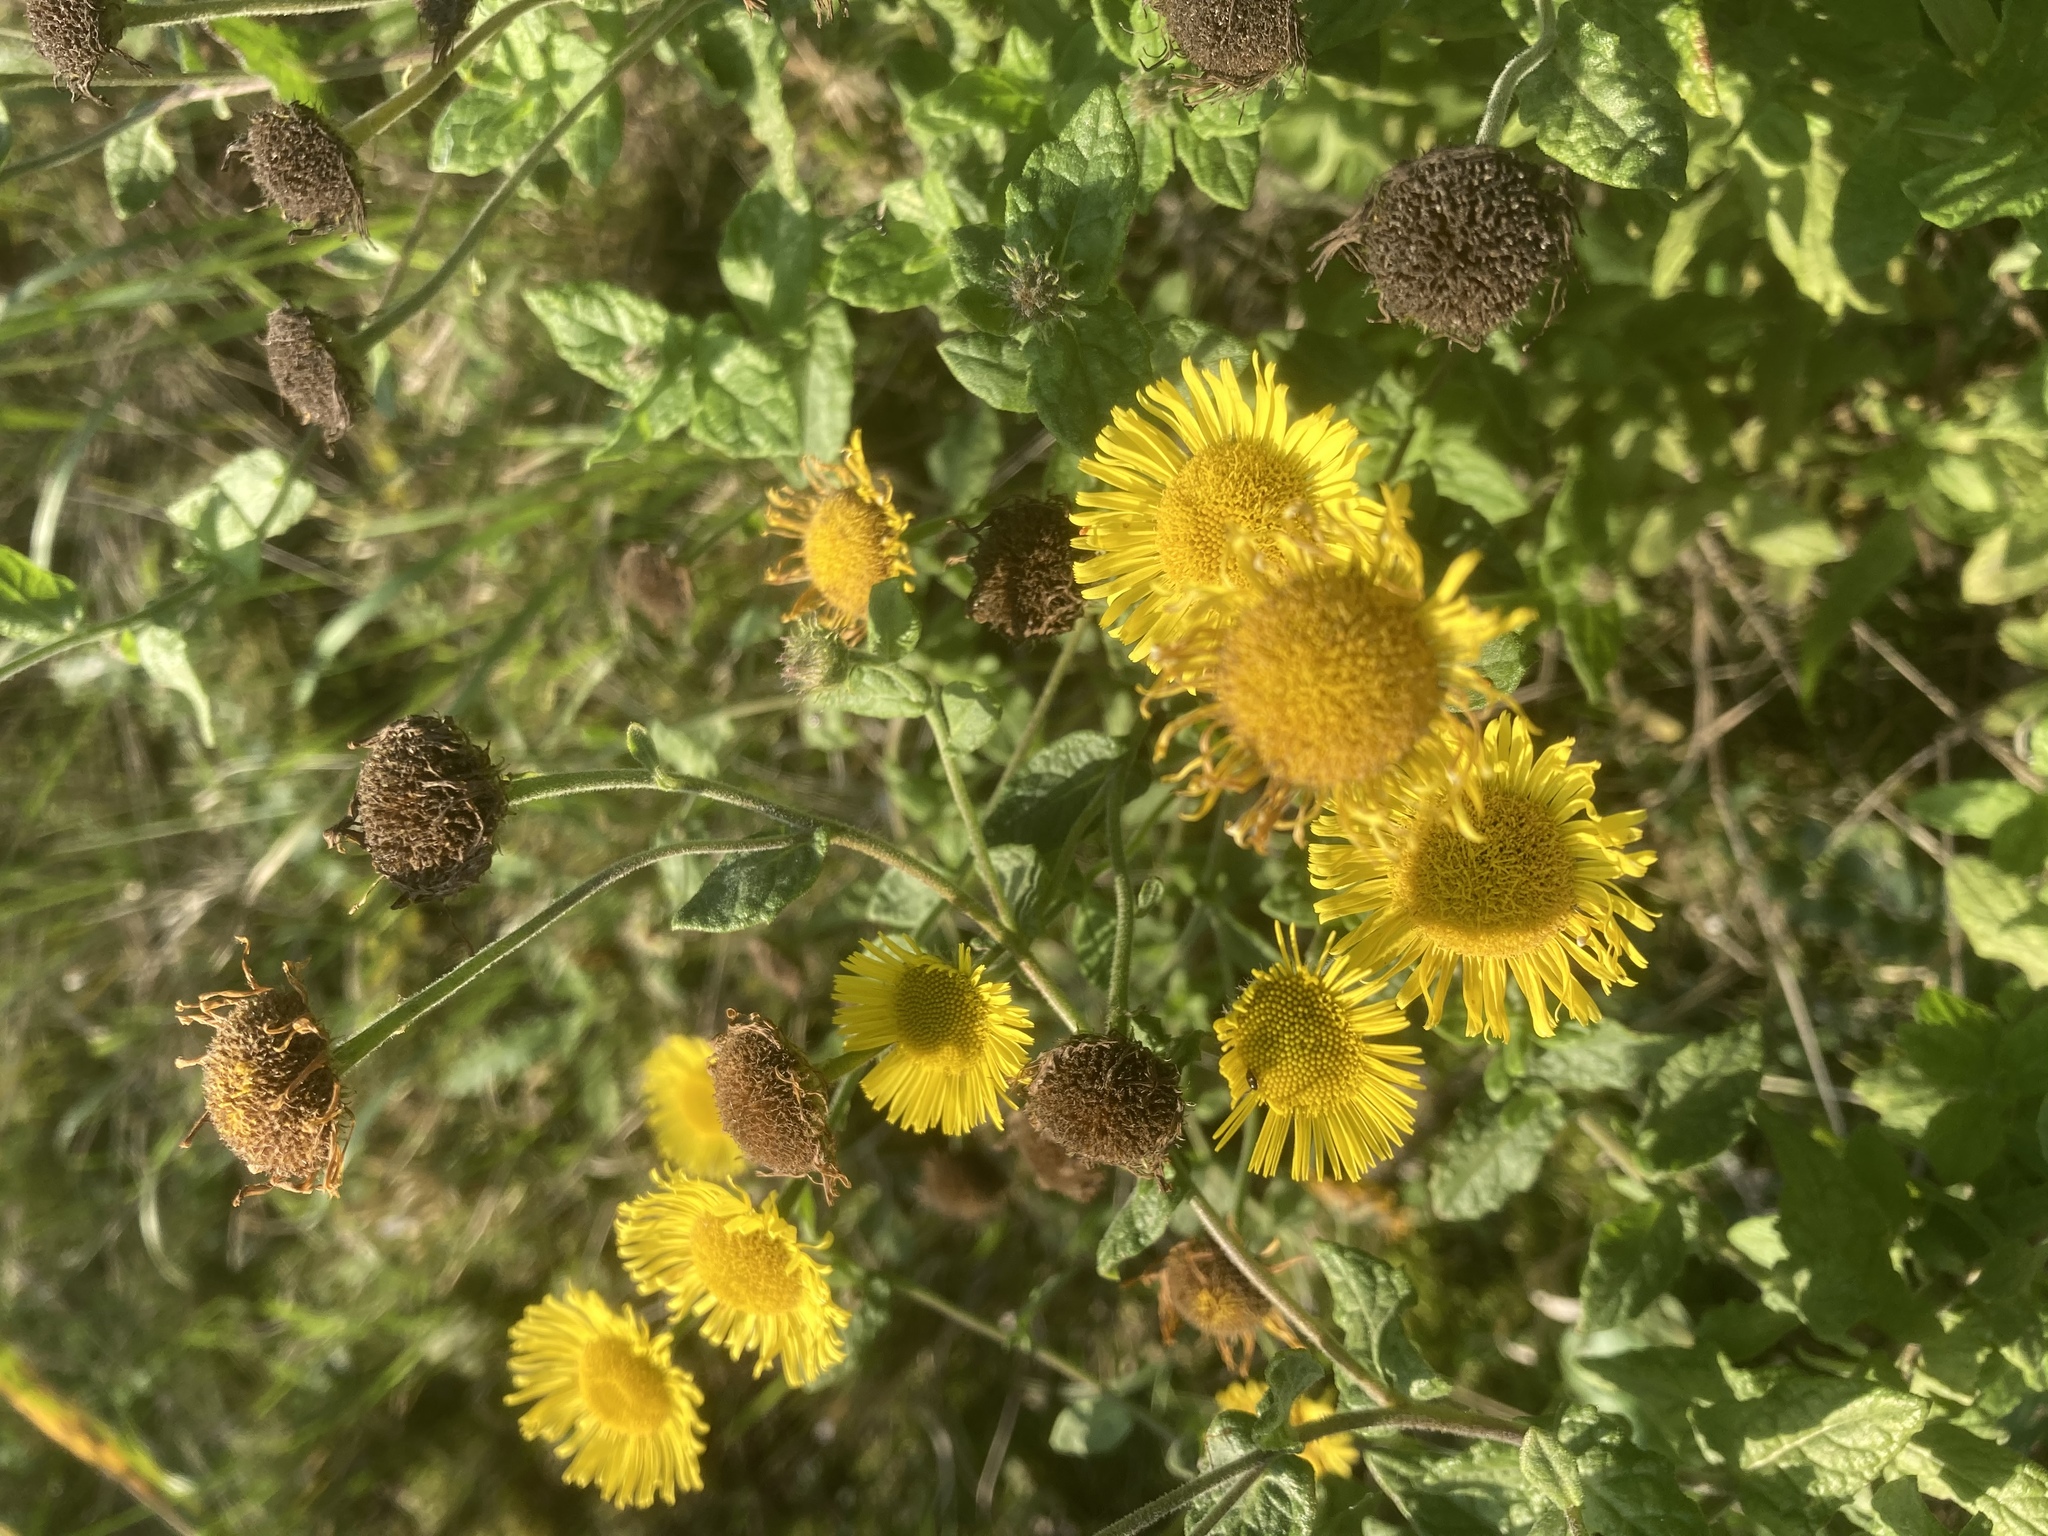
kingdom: Plantae
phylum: Tracheophyta
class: Magnoliopsida
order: Asterales
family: Asteraceae
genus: Pulicaria
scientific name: Pulicaria dysenterica
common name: Common fleabane
